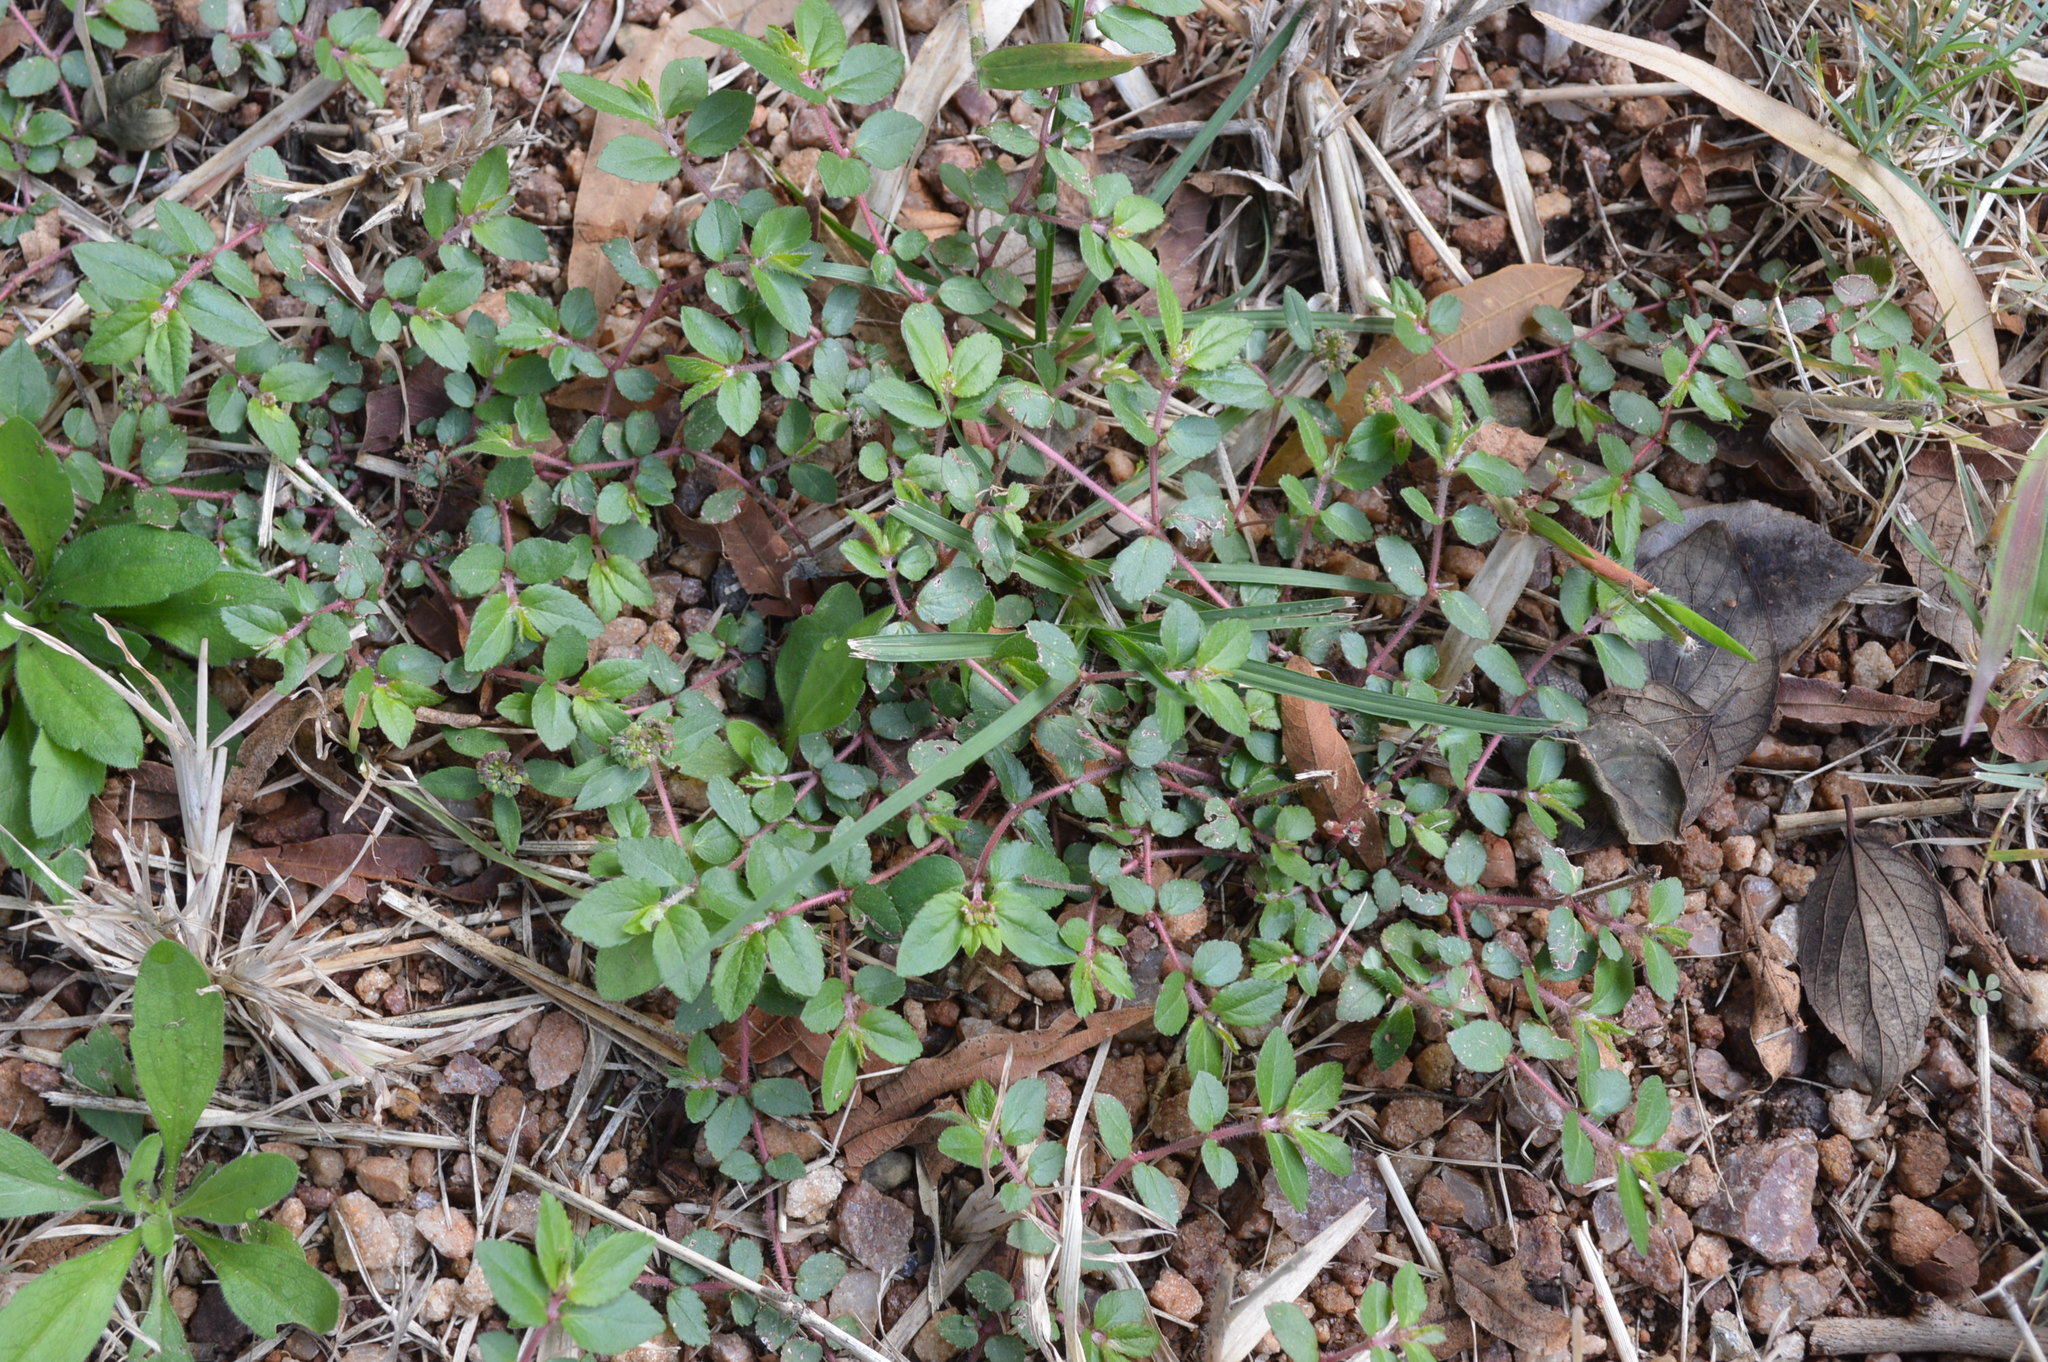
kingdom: Plantae
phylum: Tracheophyta
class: Magnoliopsida
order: Malpighiales
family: Euphorbiaceae
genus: Euphorbia
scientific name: Euphorbia ophthalmica
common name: Florida hammock sandmat
